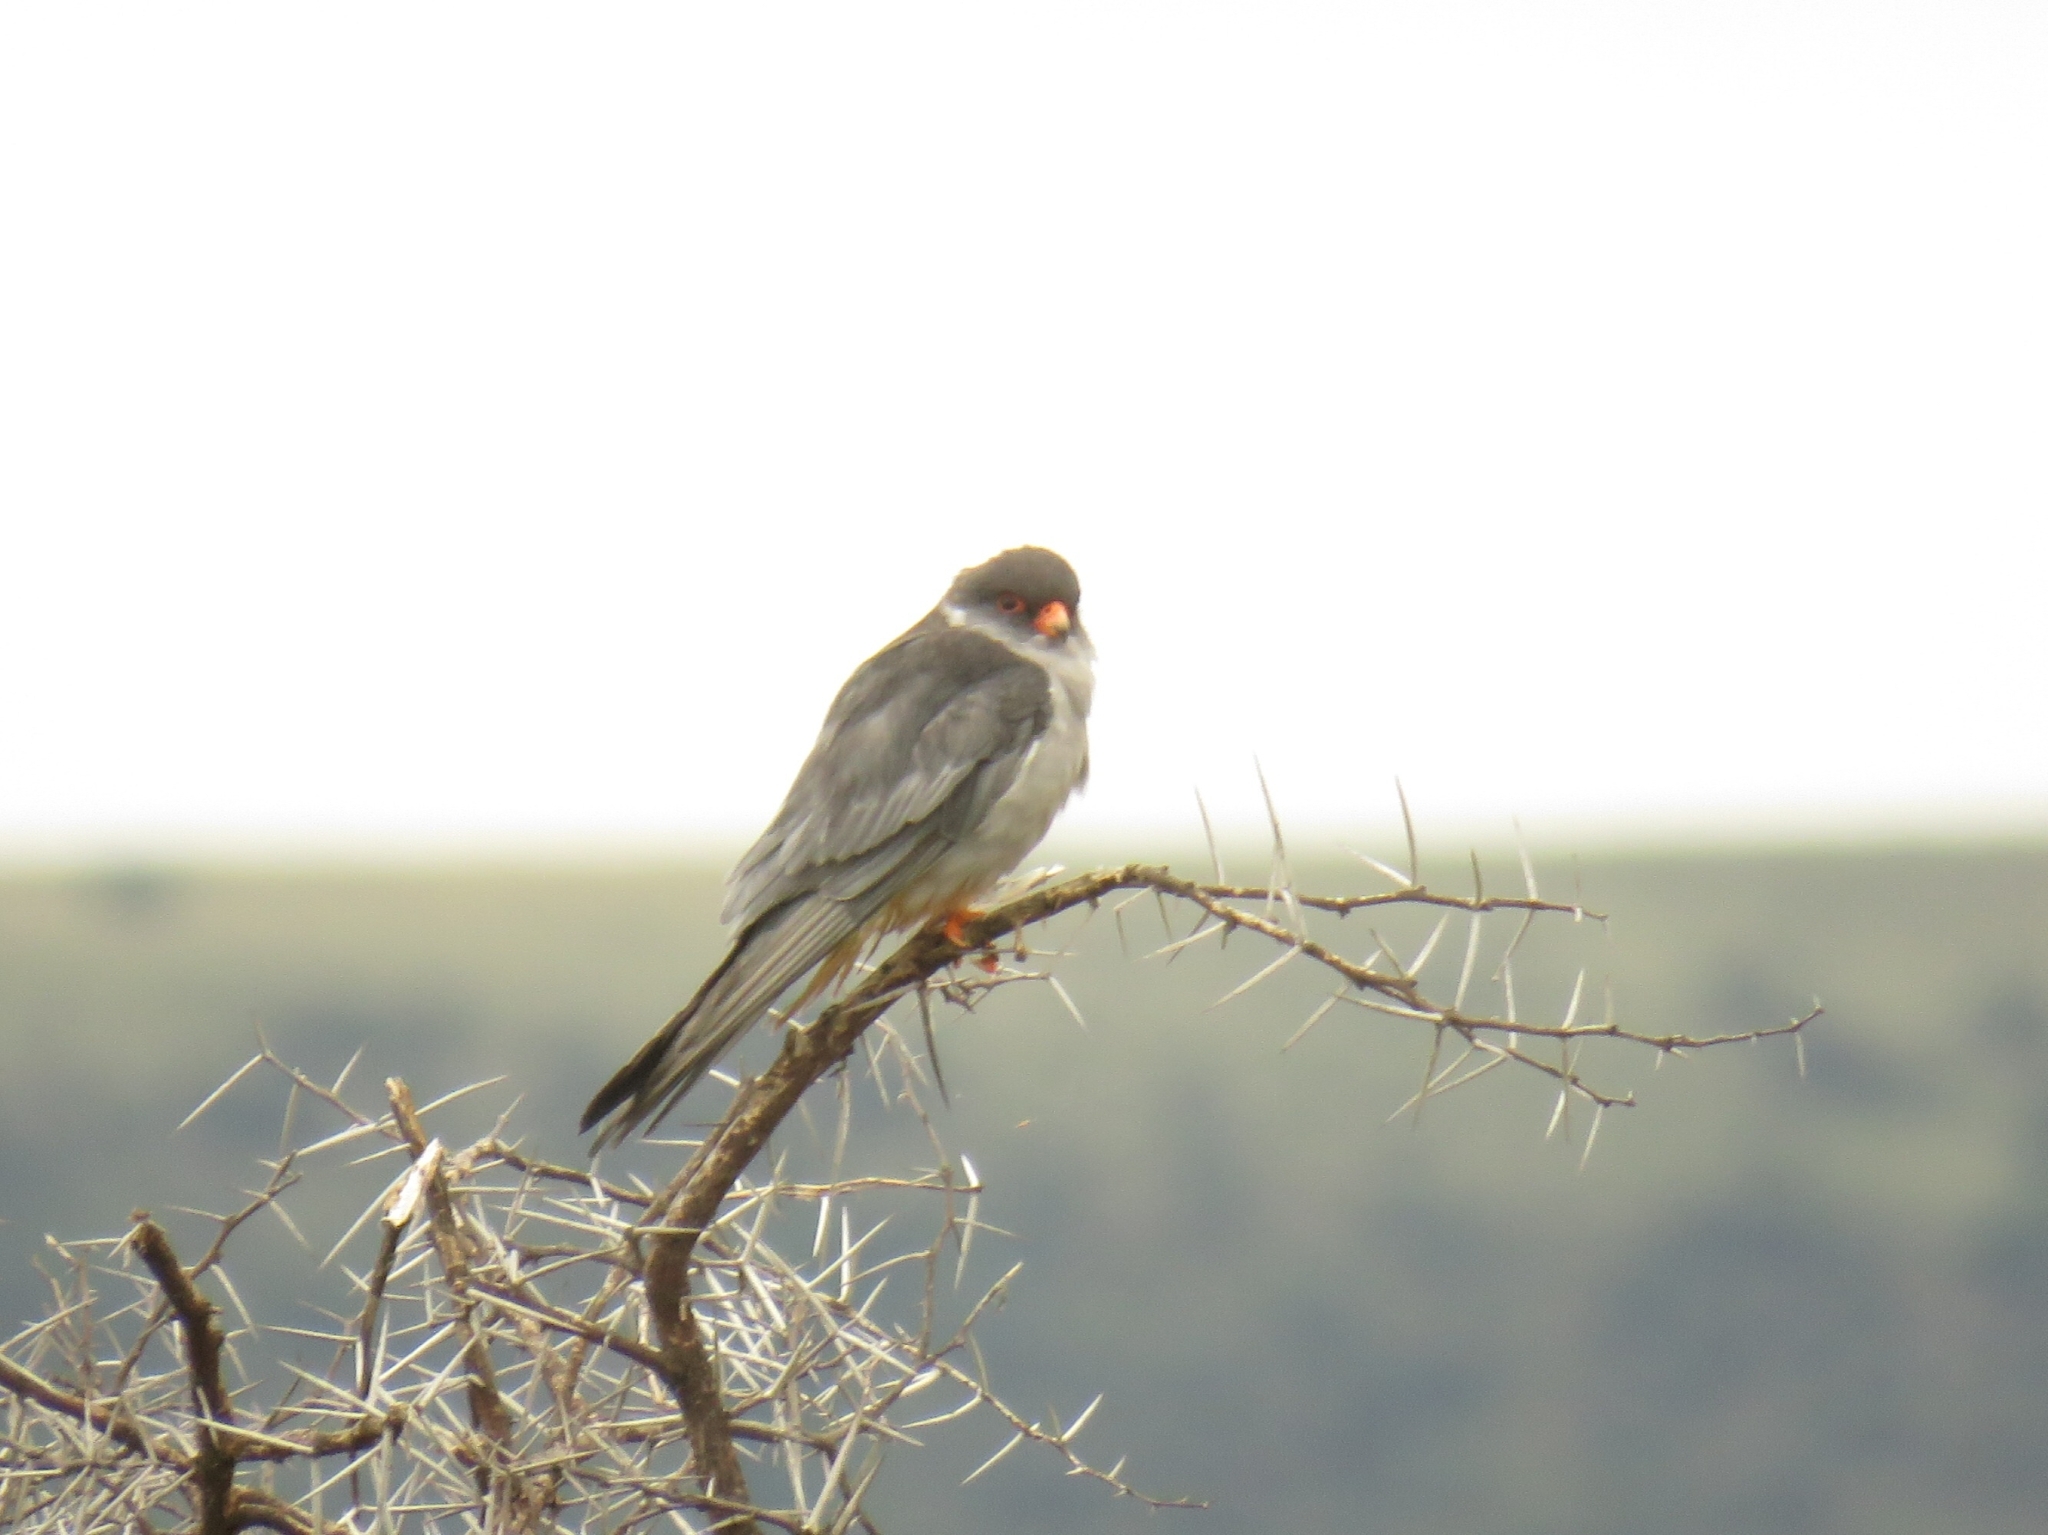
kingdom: Animalia
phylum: Chordata
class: Aves
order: Falconiformes
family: Falconidae
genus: Falco
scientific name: Falco amurensis
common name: Amur falcon
